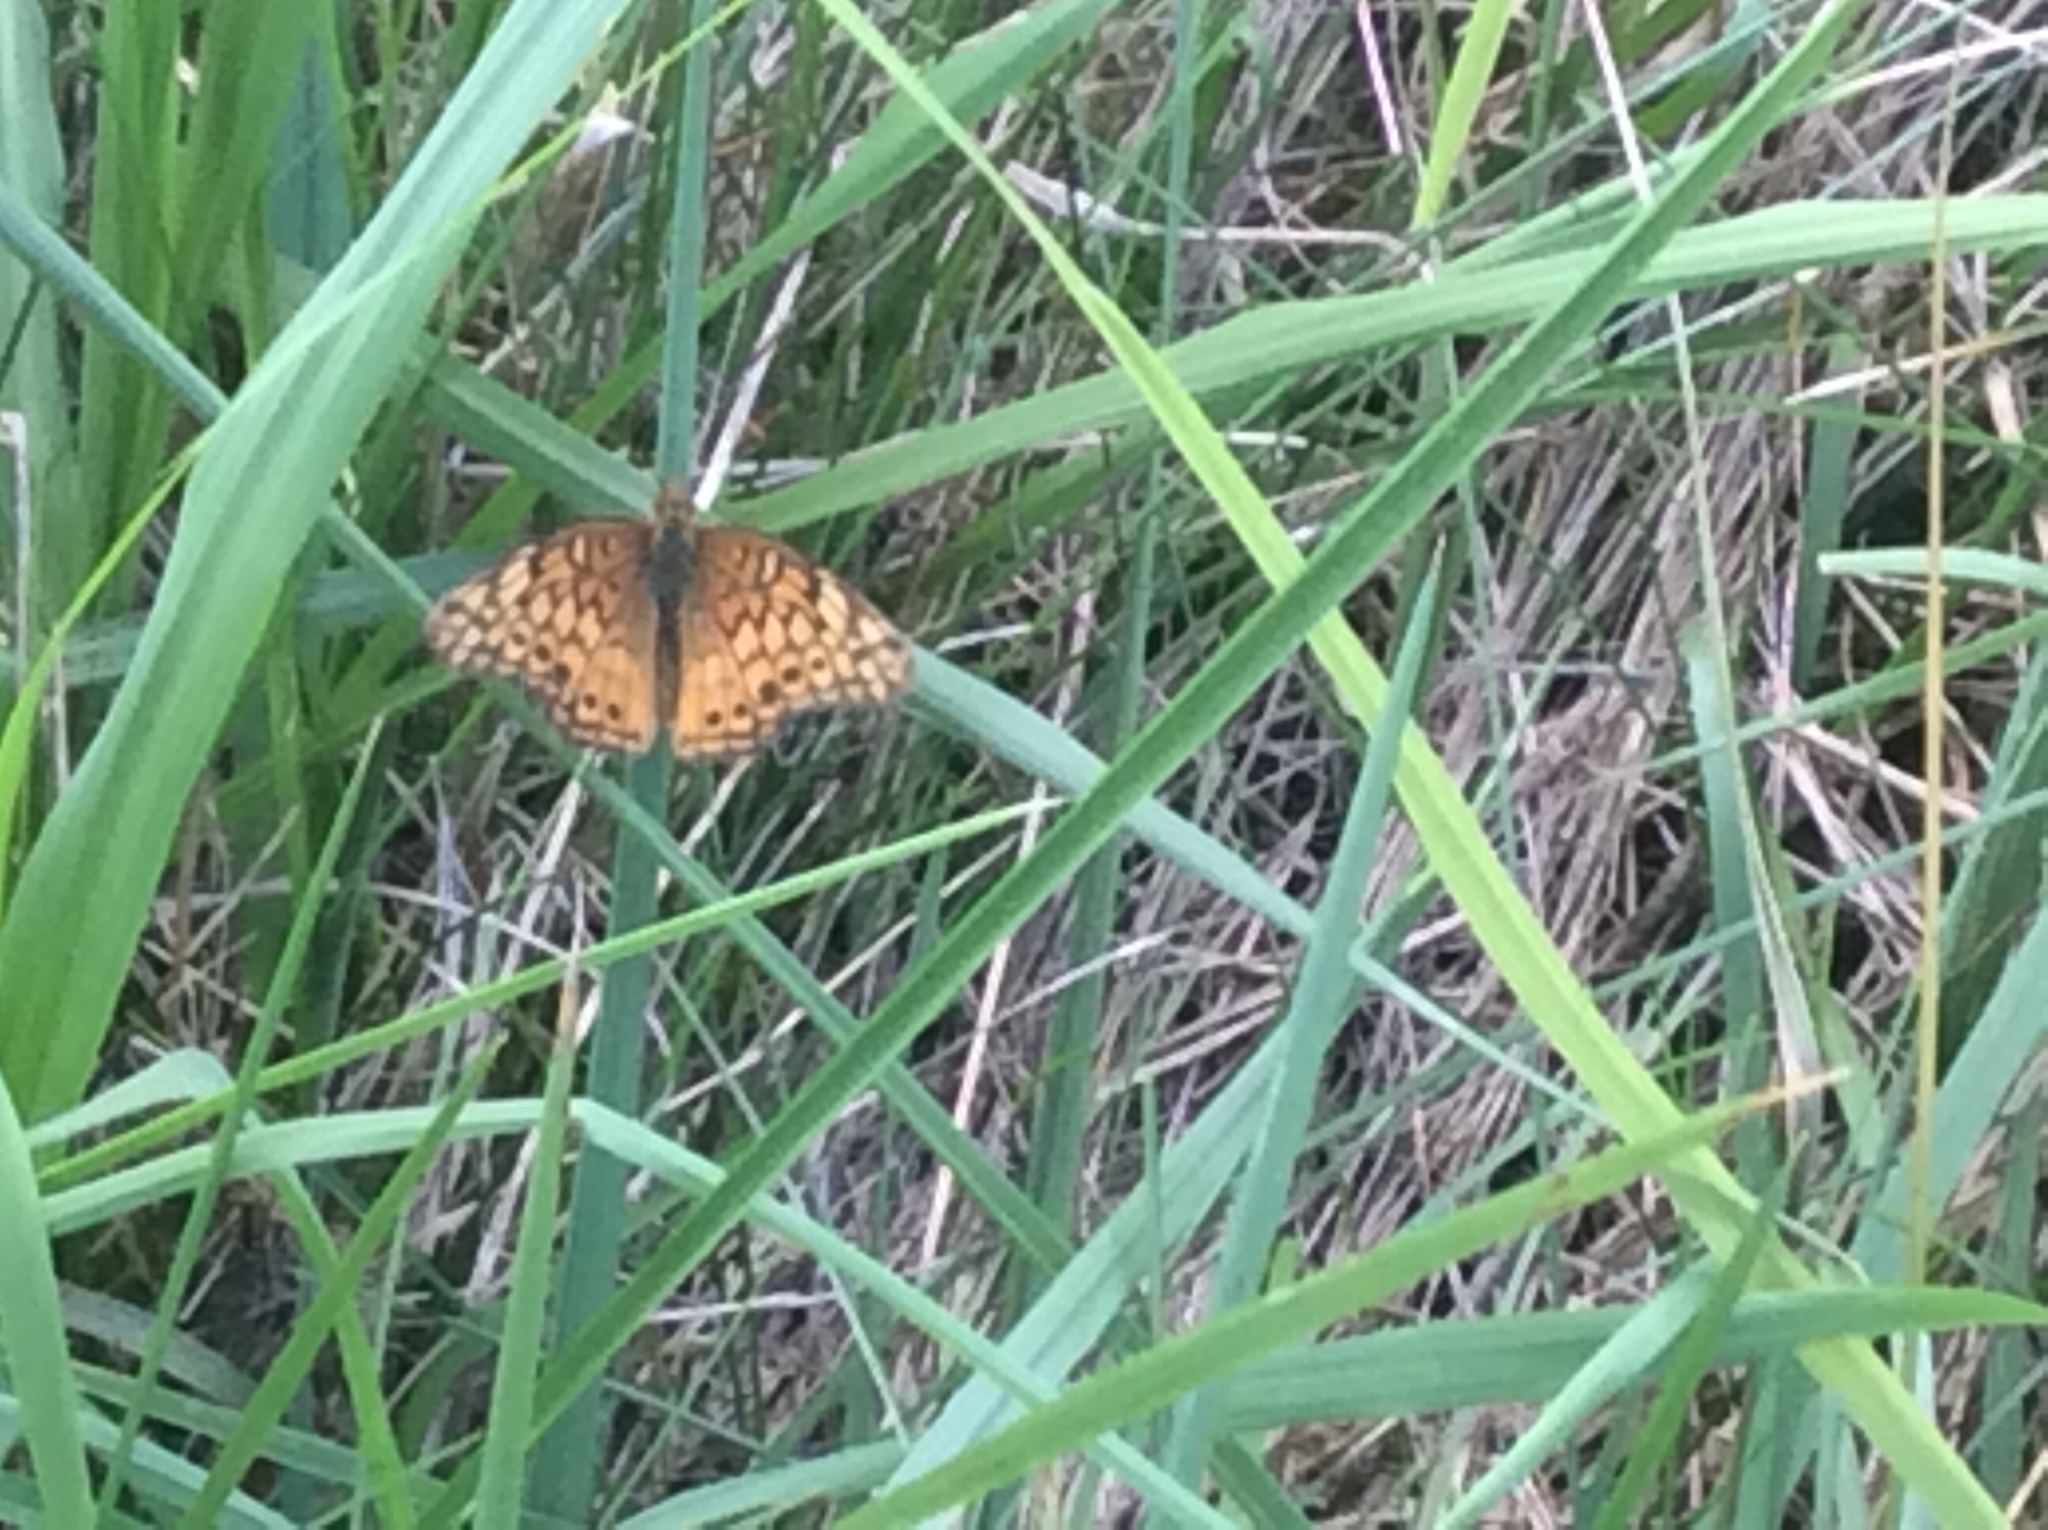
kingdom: Animalia
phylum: Arthropoda
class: Insecta
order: Lepidoptera
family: Nymphalidae
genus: Euptoieta
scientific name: Euptoieta claudia
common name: Variegated fritillary
